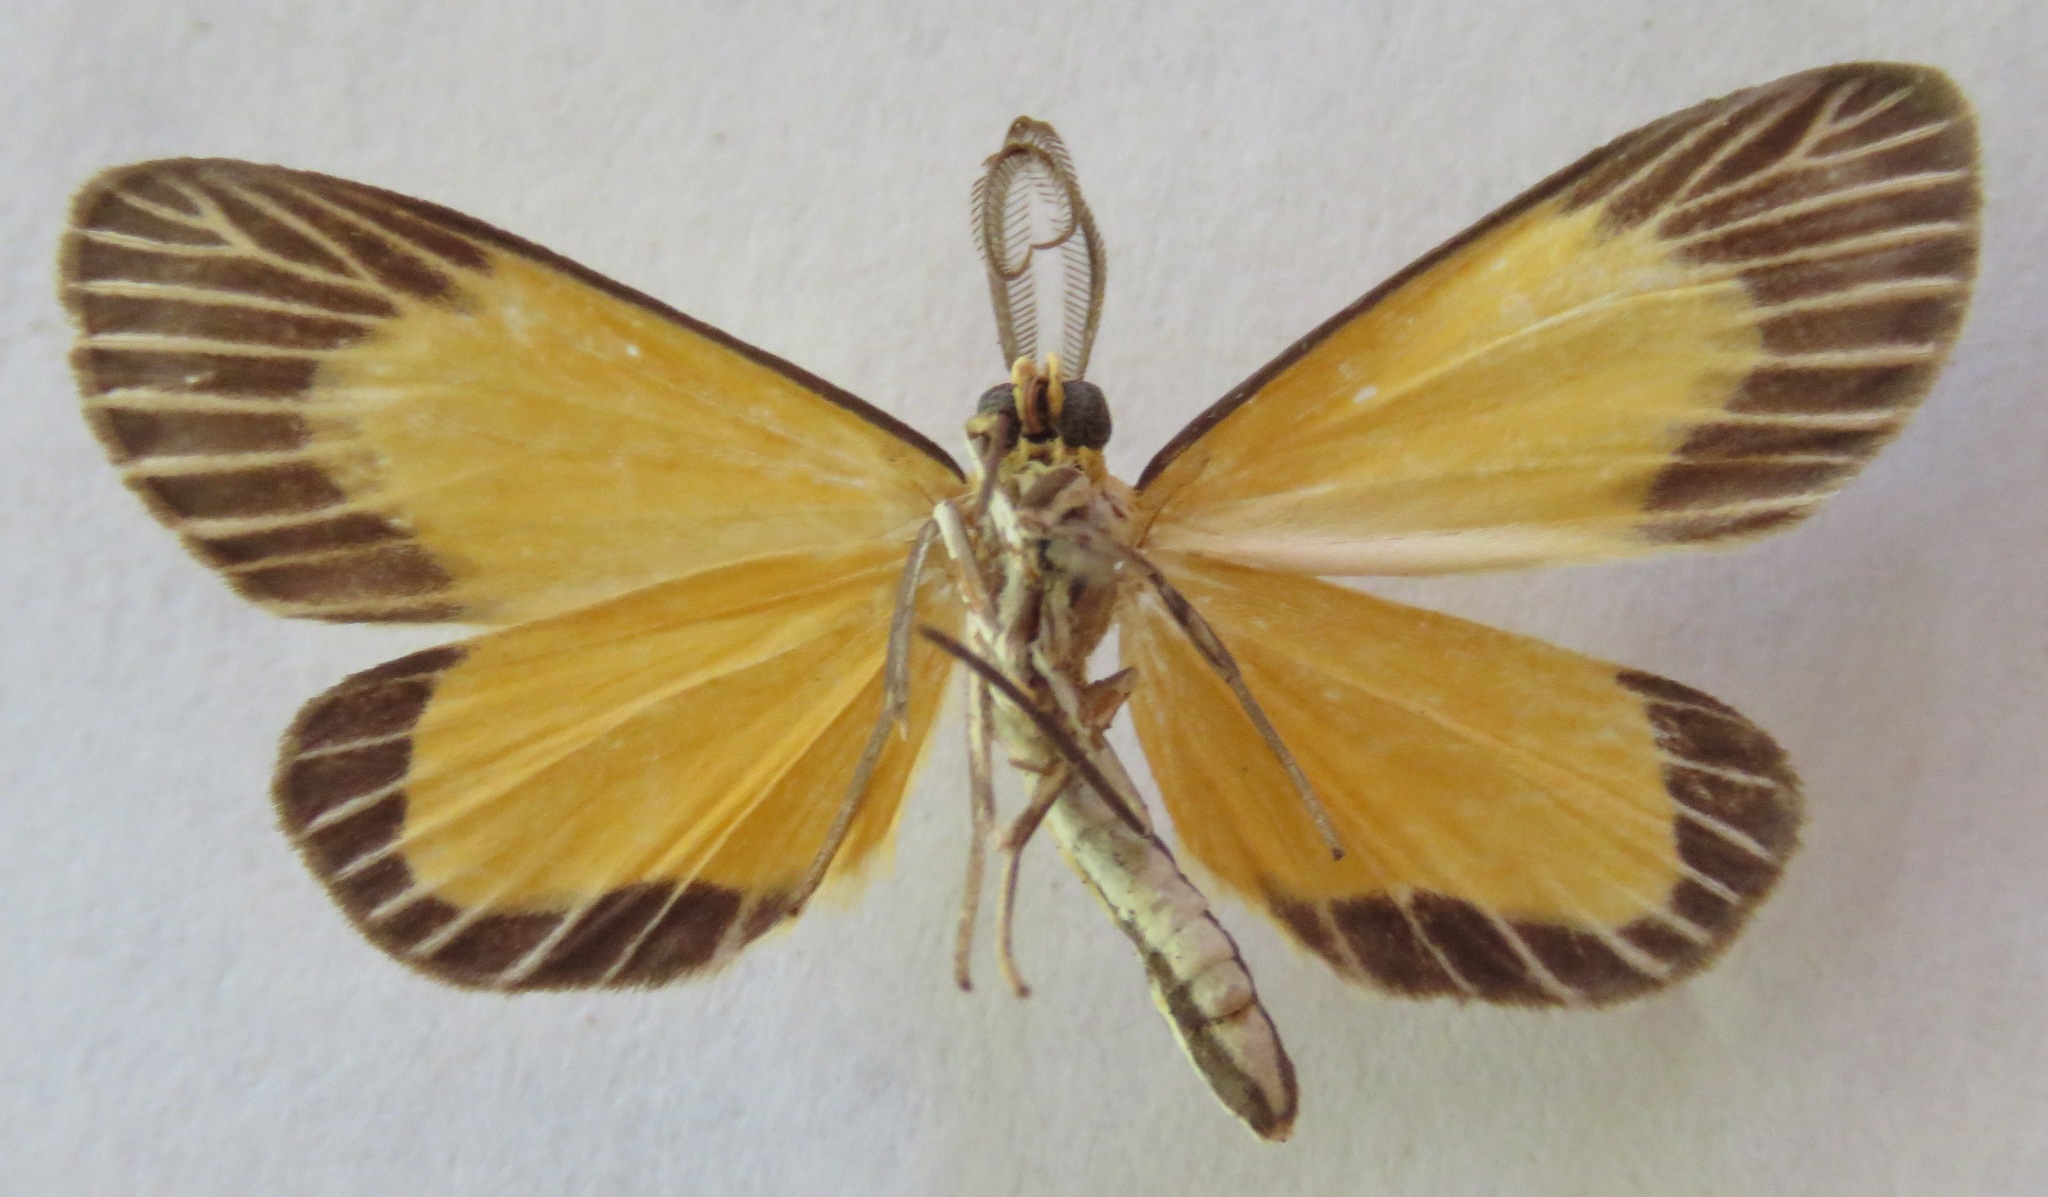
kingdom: Animalia
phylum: Arthropoda
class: Insecta
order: Lepidoptera
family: Notodontidae
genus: Oricia
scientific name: Oricia homalochroa
